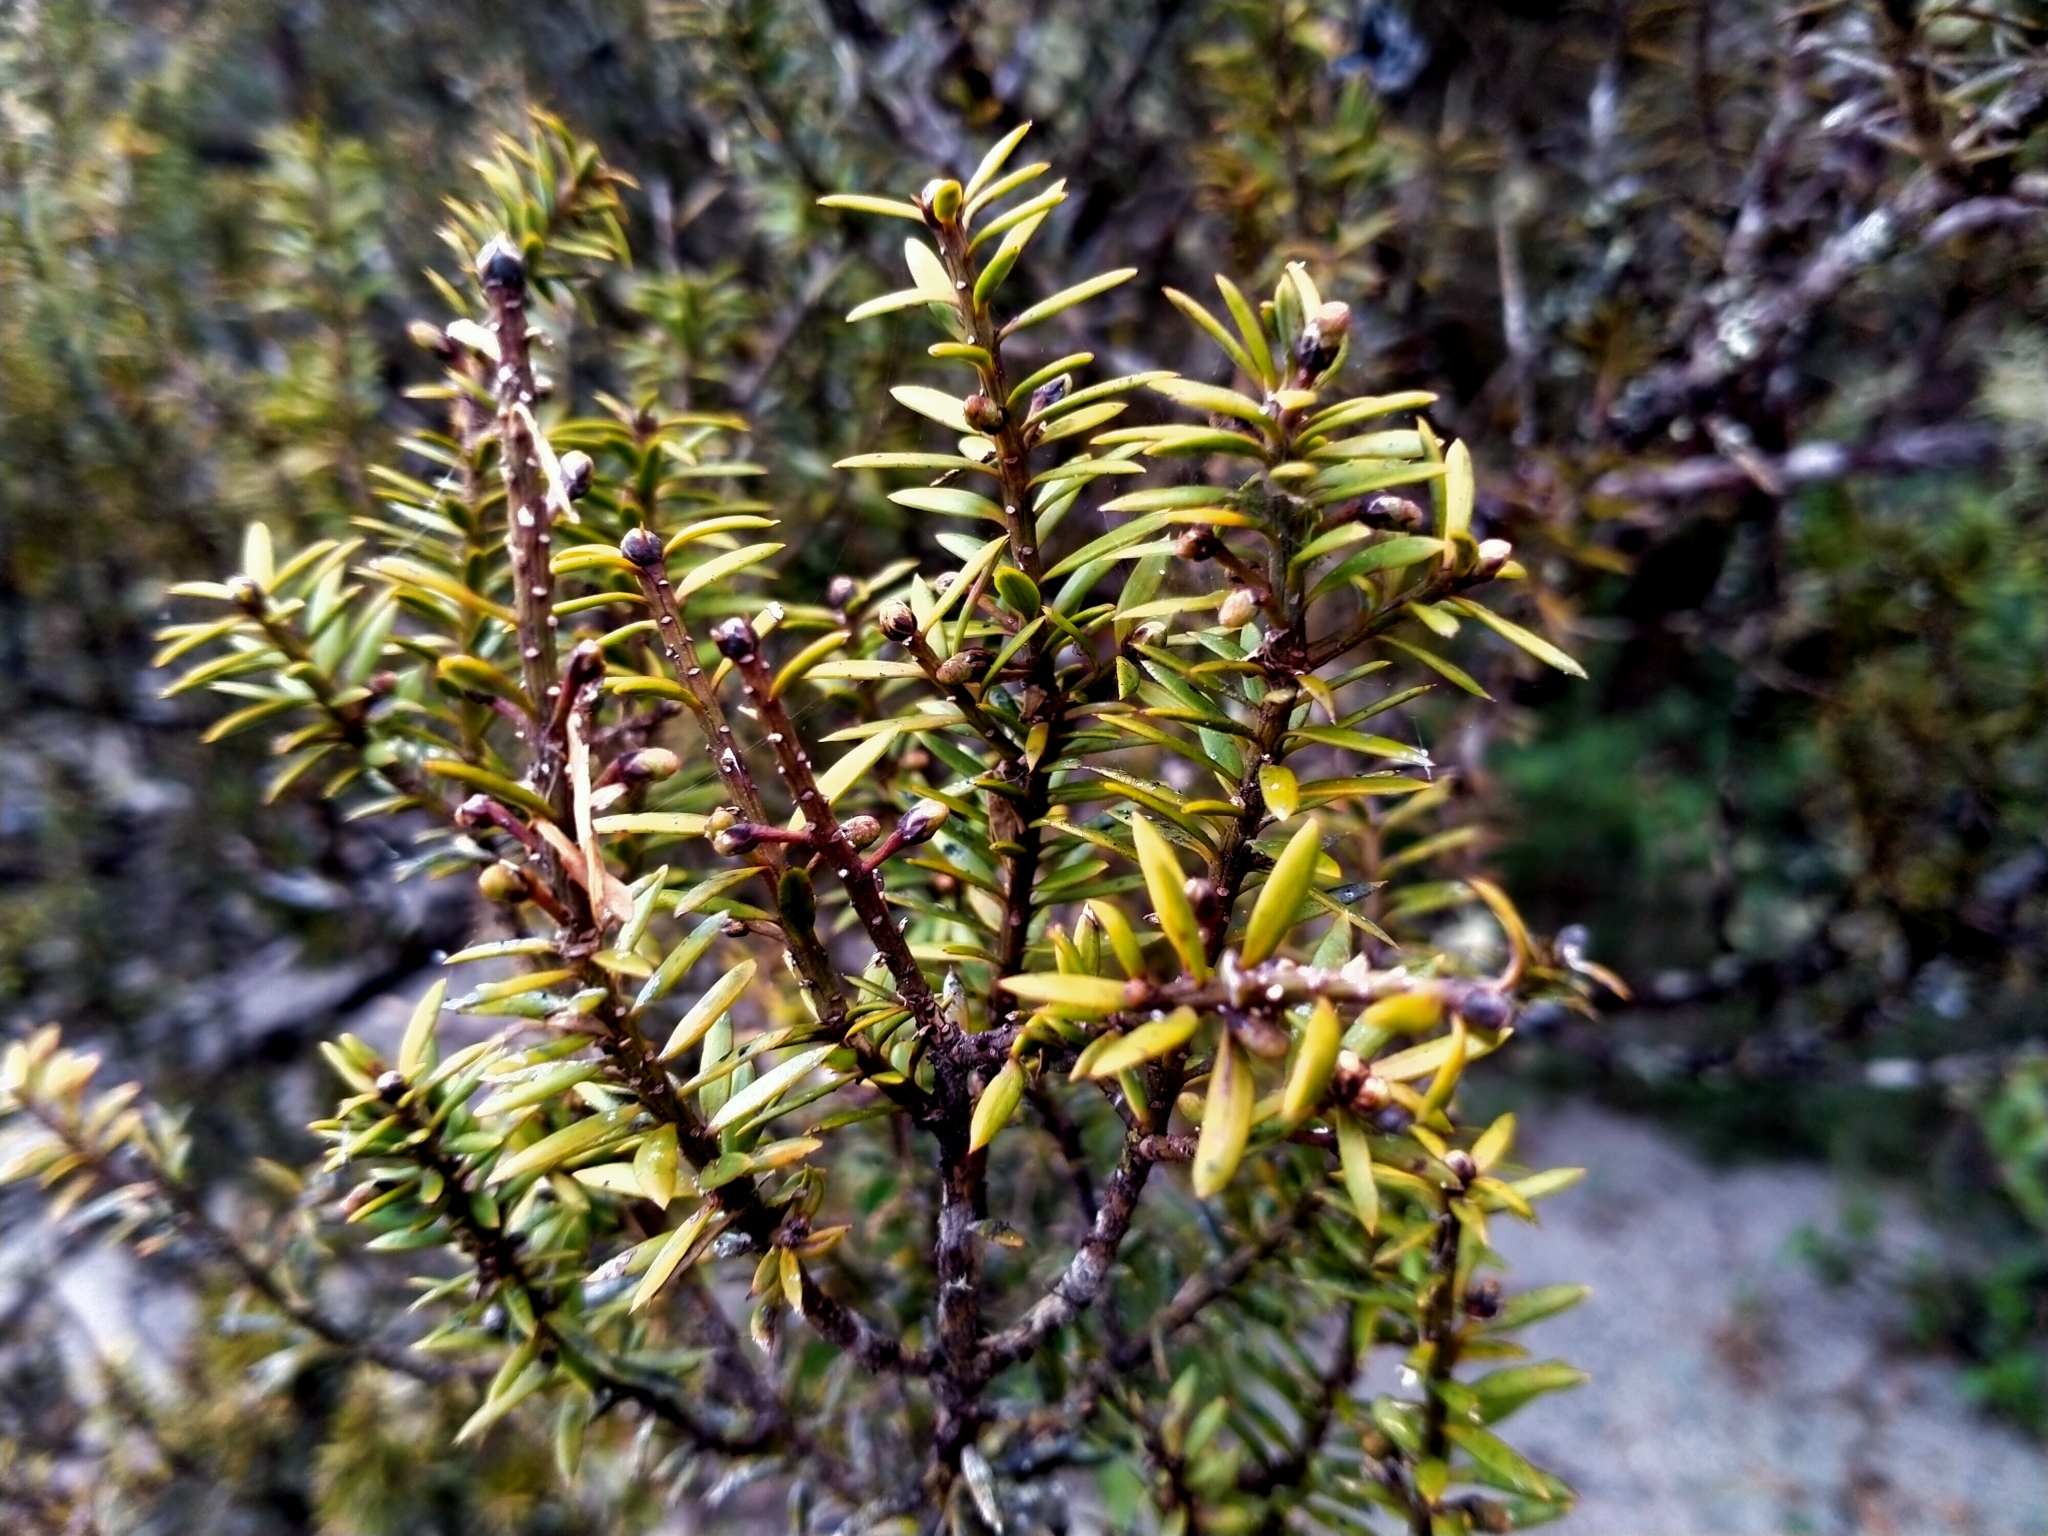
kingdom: Plantae
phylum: Tracheophyta
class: Pinopsida
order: Pinales
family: Podocarpaceae
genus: Podocarpus
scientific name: Podocarpus acutifolius
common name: Needle-leaved totara
